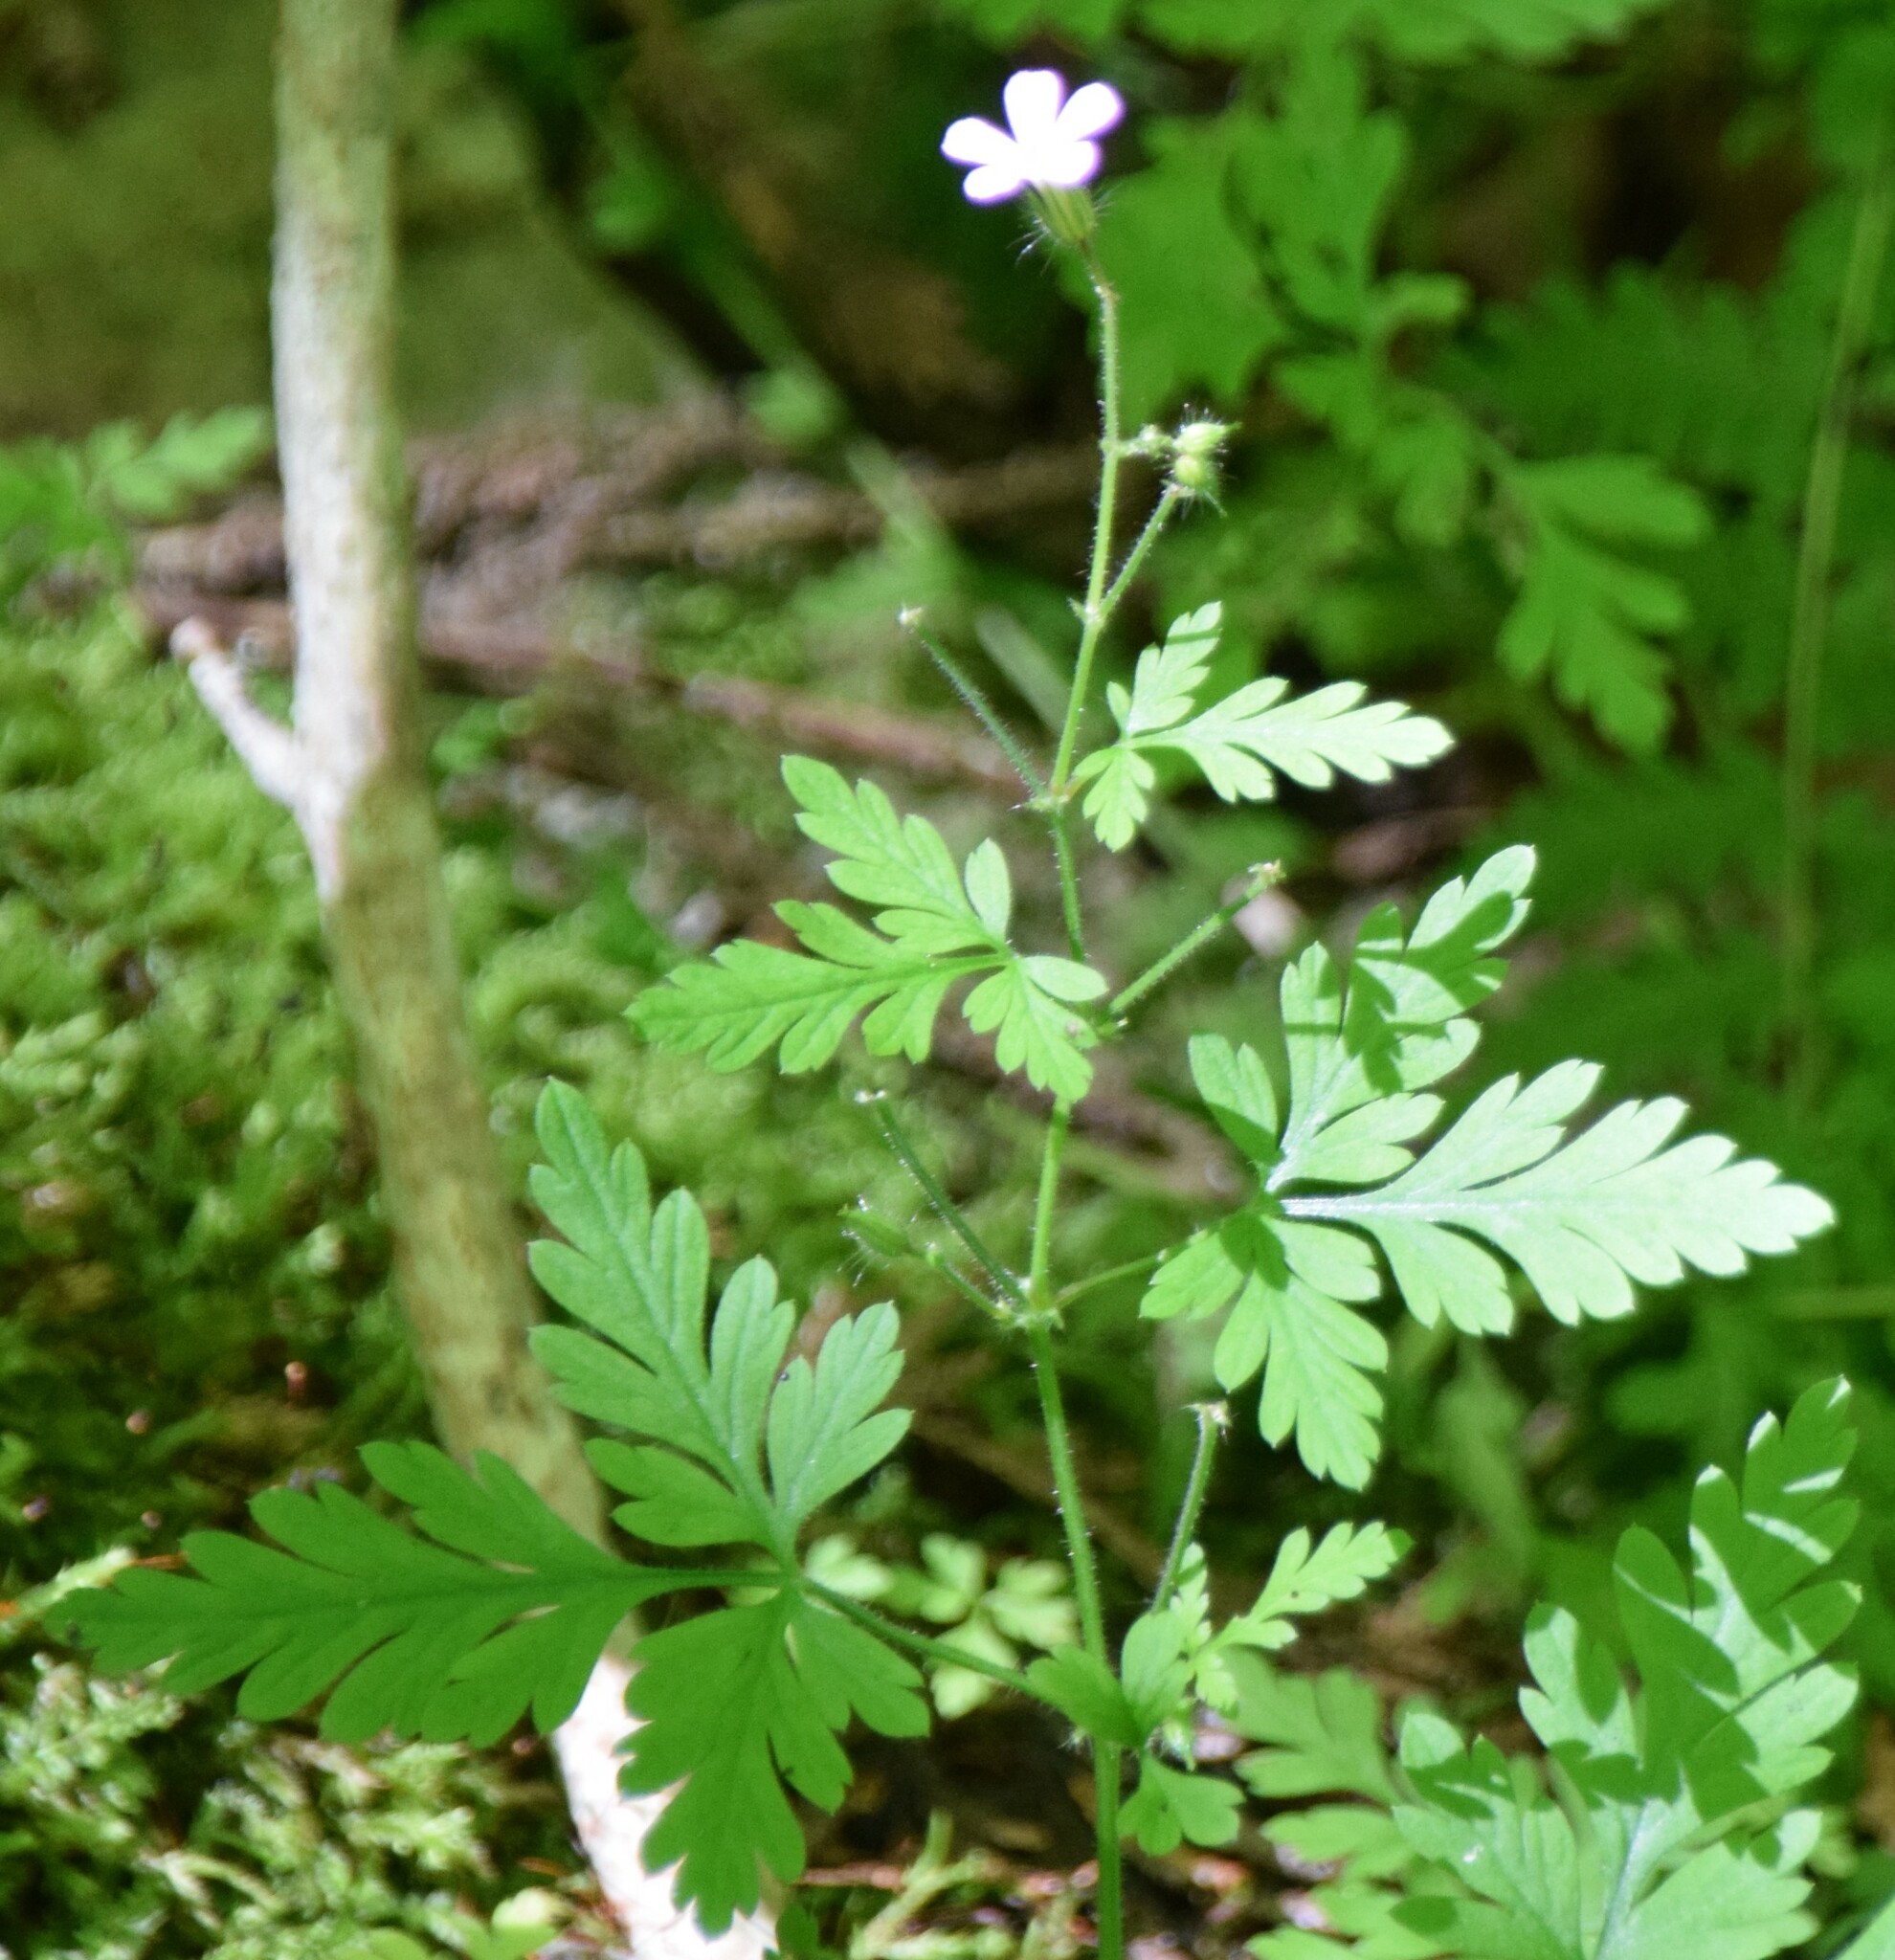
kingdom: Plantae
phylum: Tracheophyta
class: Magnoliopsida
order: Geraniales
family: Geraniaceae
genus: Geranium
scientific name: Geranium robertianum
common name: Herb-robert
